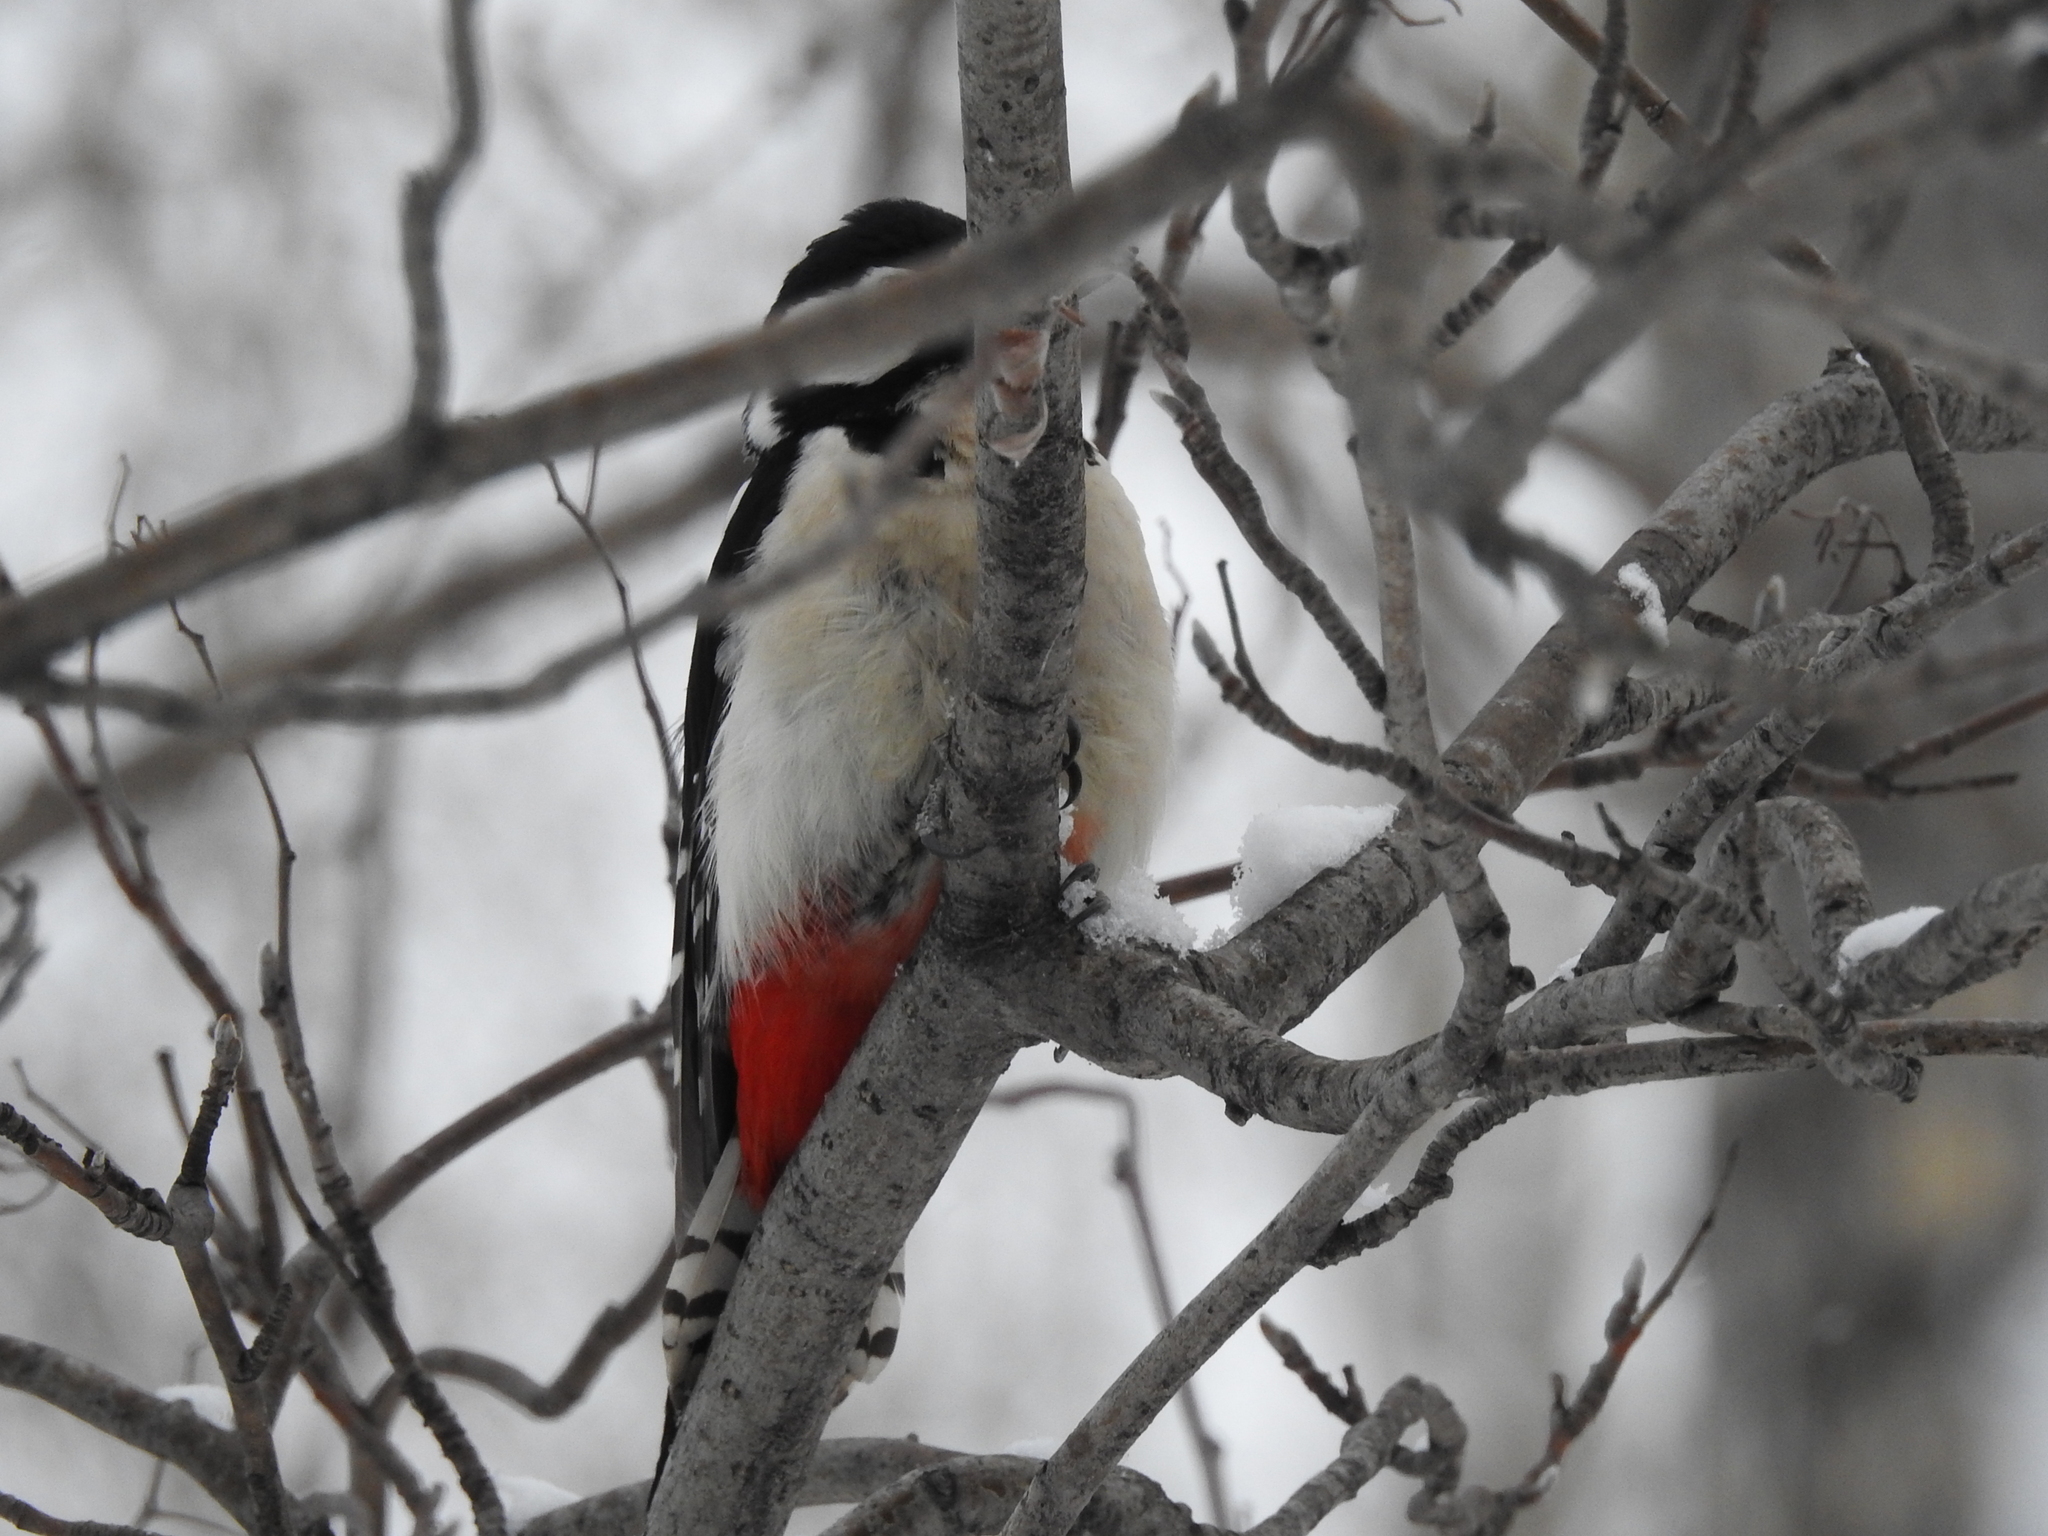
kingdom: Animalia
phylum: Chordata
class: Aves
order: Piciformes
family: Picidae
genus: Dendrocopos
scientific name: Dendrocopos major
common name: Great spotted woodpecker
